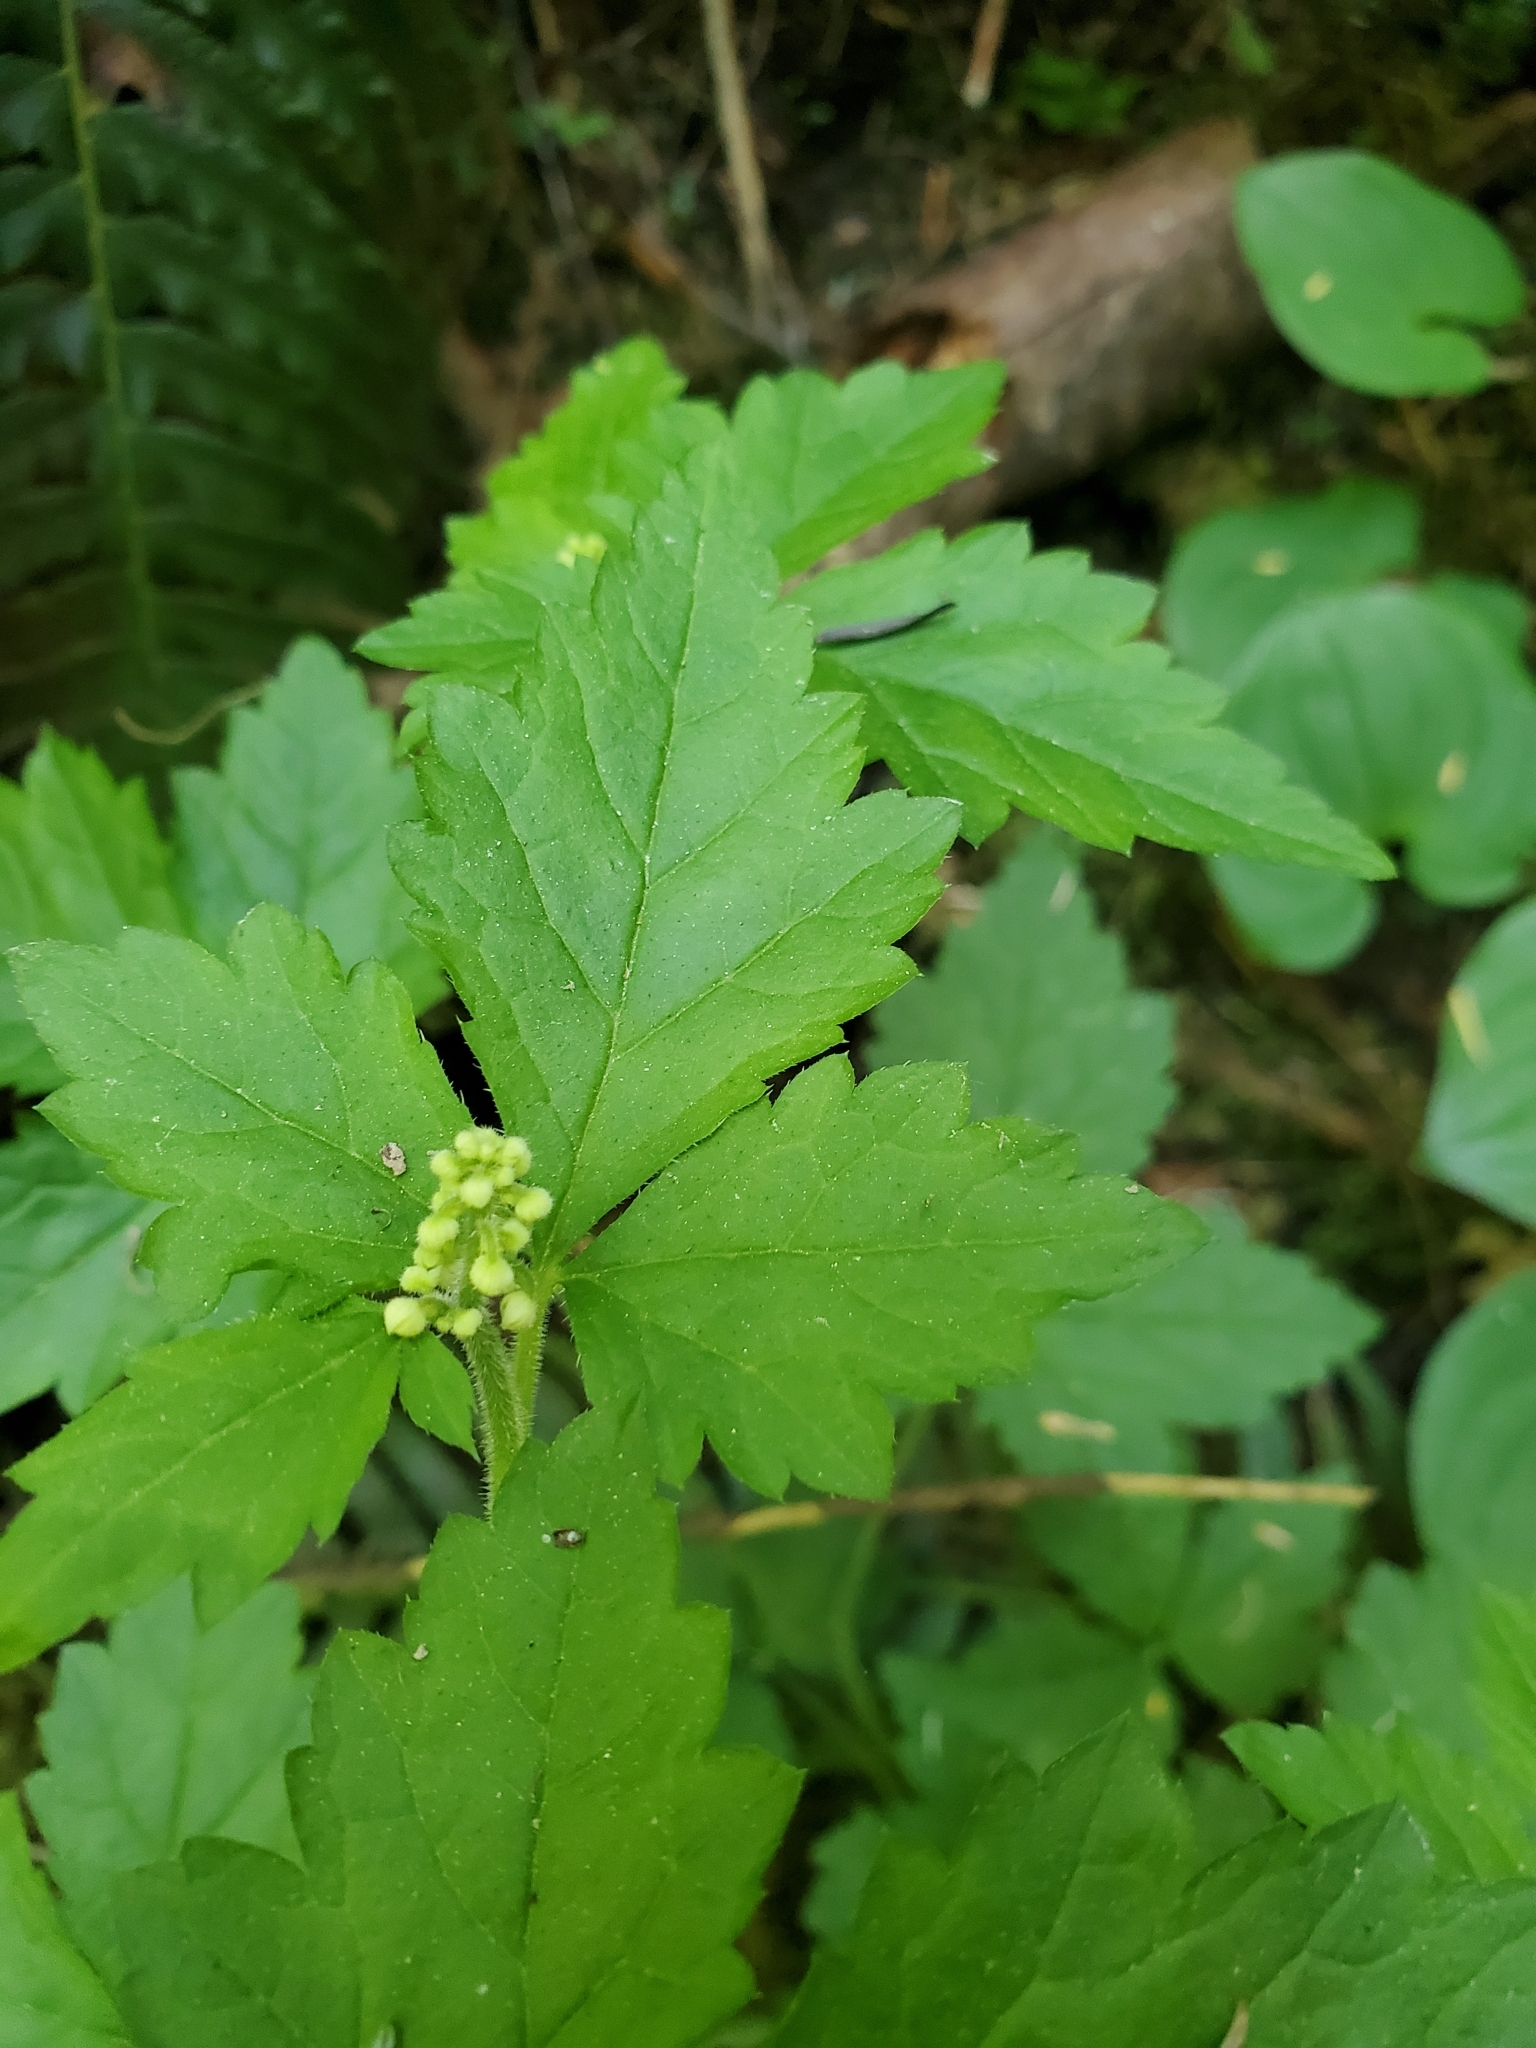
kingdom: Plantae
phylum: Tracheophyta
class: Magnoliopsida
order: Saxifragales
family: Saxifragaceae
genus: Tiarella
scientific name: Tiarella trifoliata
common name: Sugar-scoop
